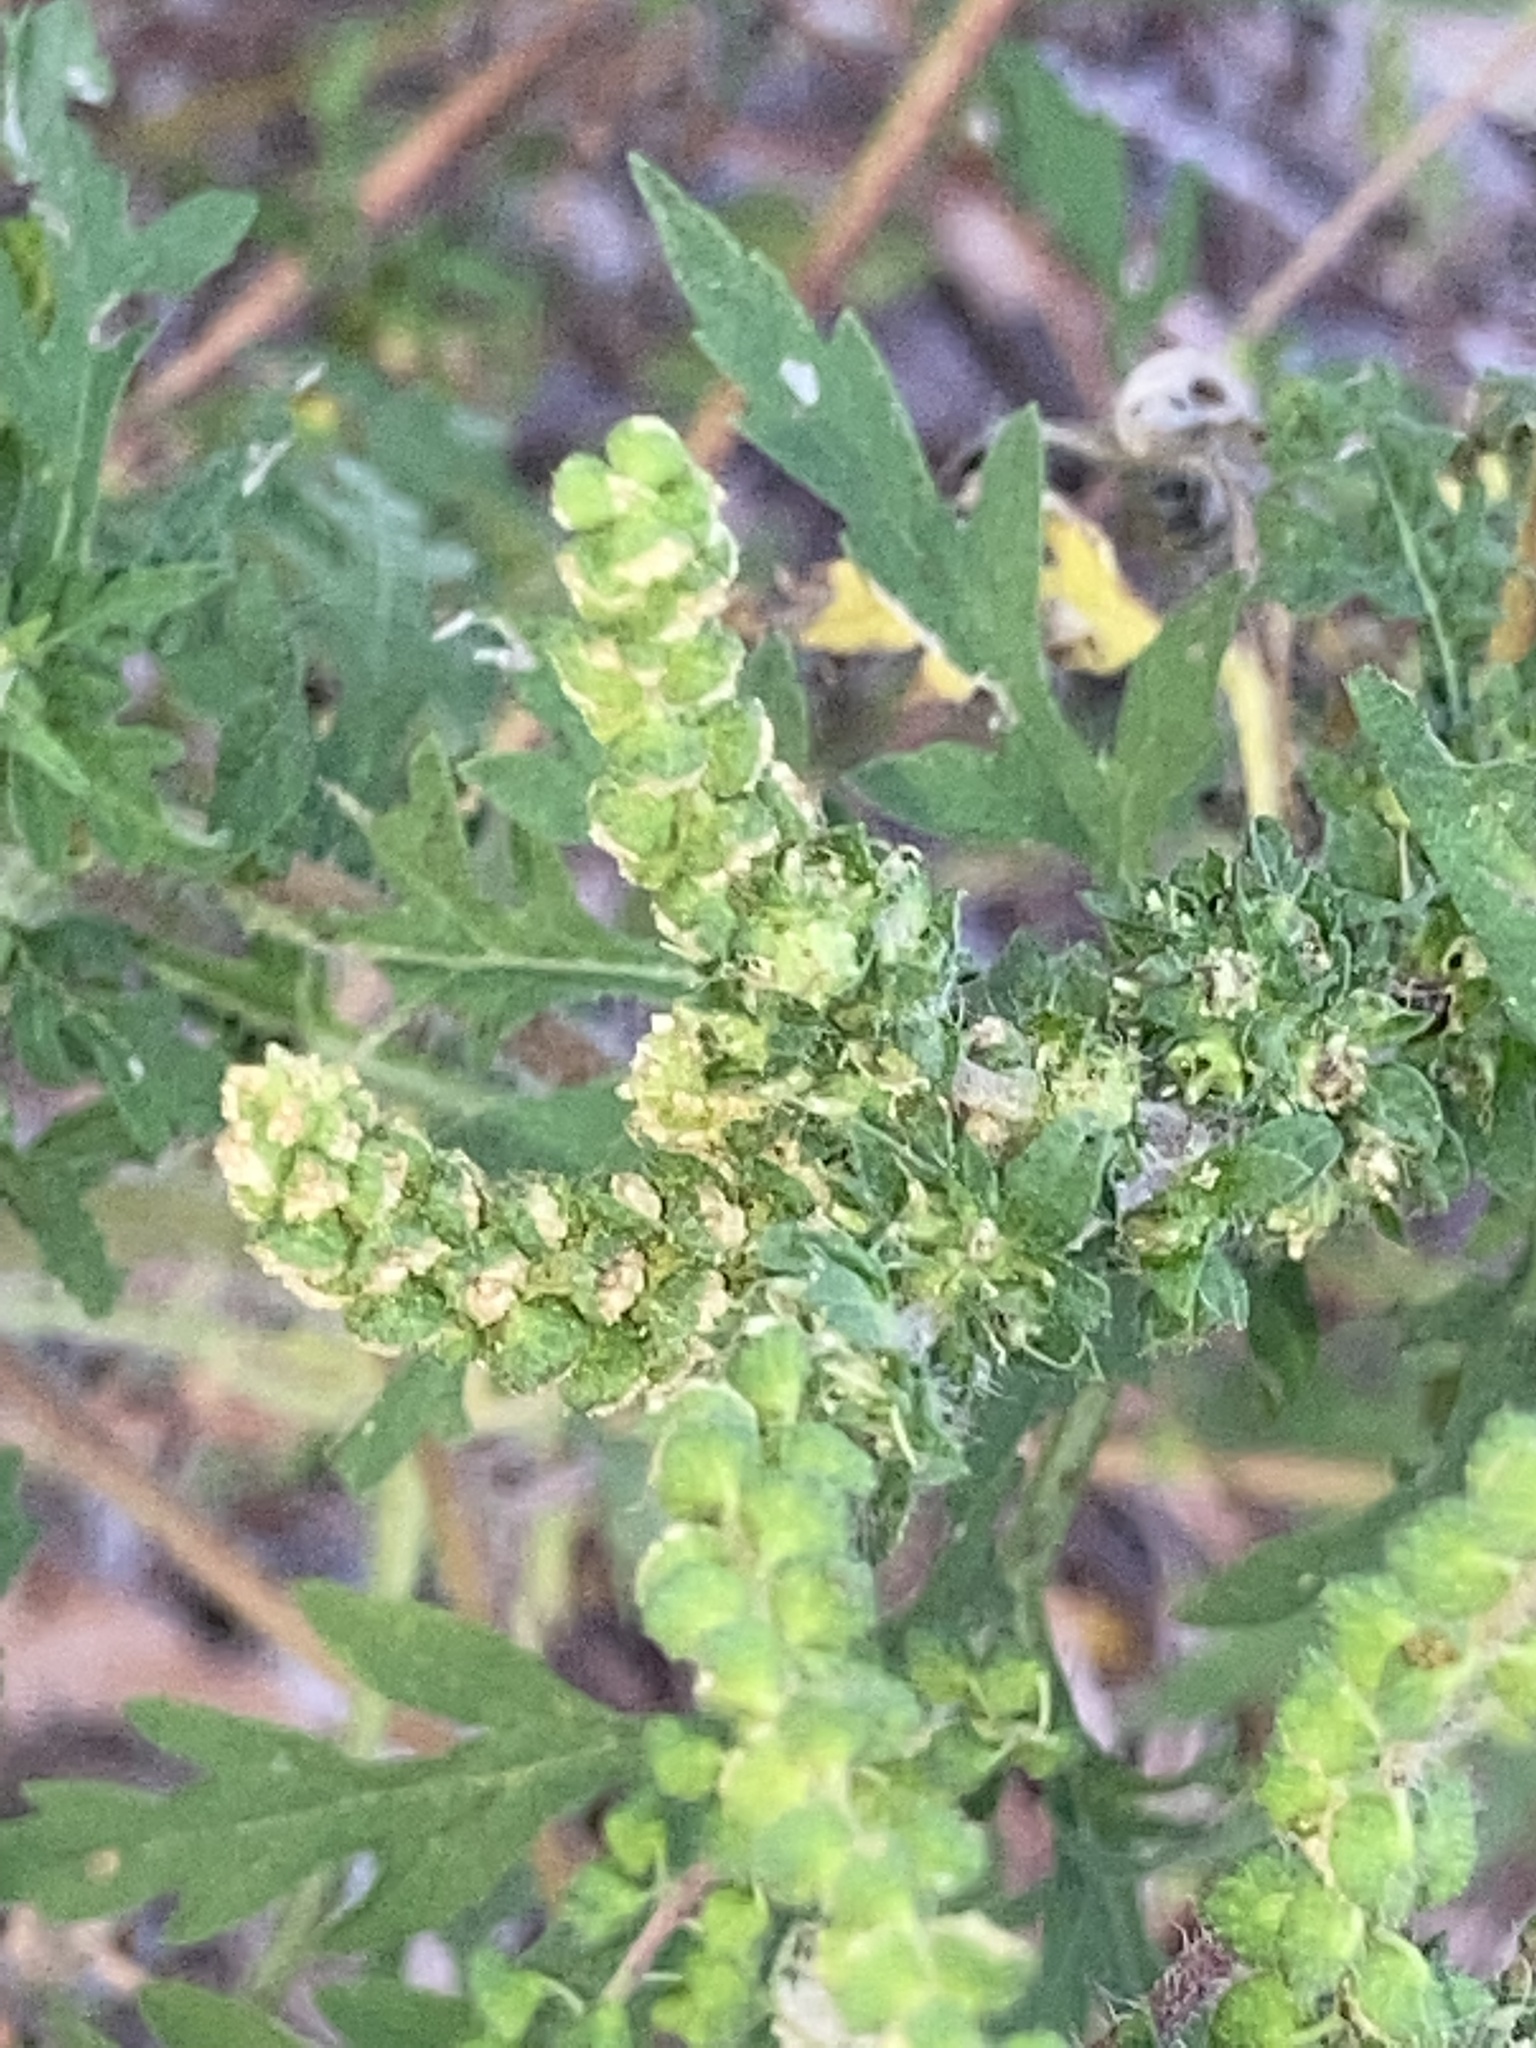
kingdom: Plantae
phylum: Tracheophyta
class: Magnoliopsida
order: Asterales
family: Asteraceae
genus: Ambrosia
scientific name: Ambrosia artemisiifolia
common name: Annual ragweed
